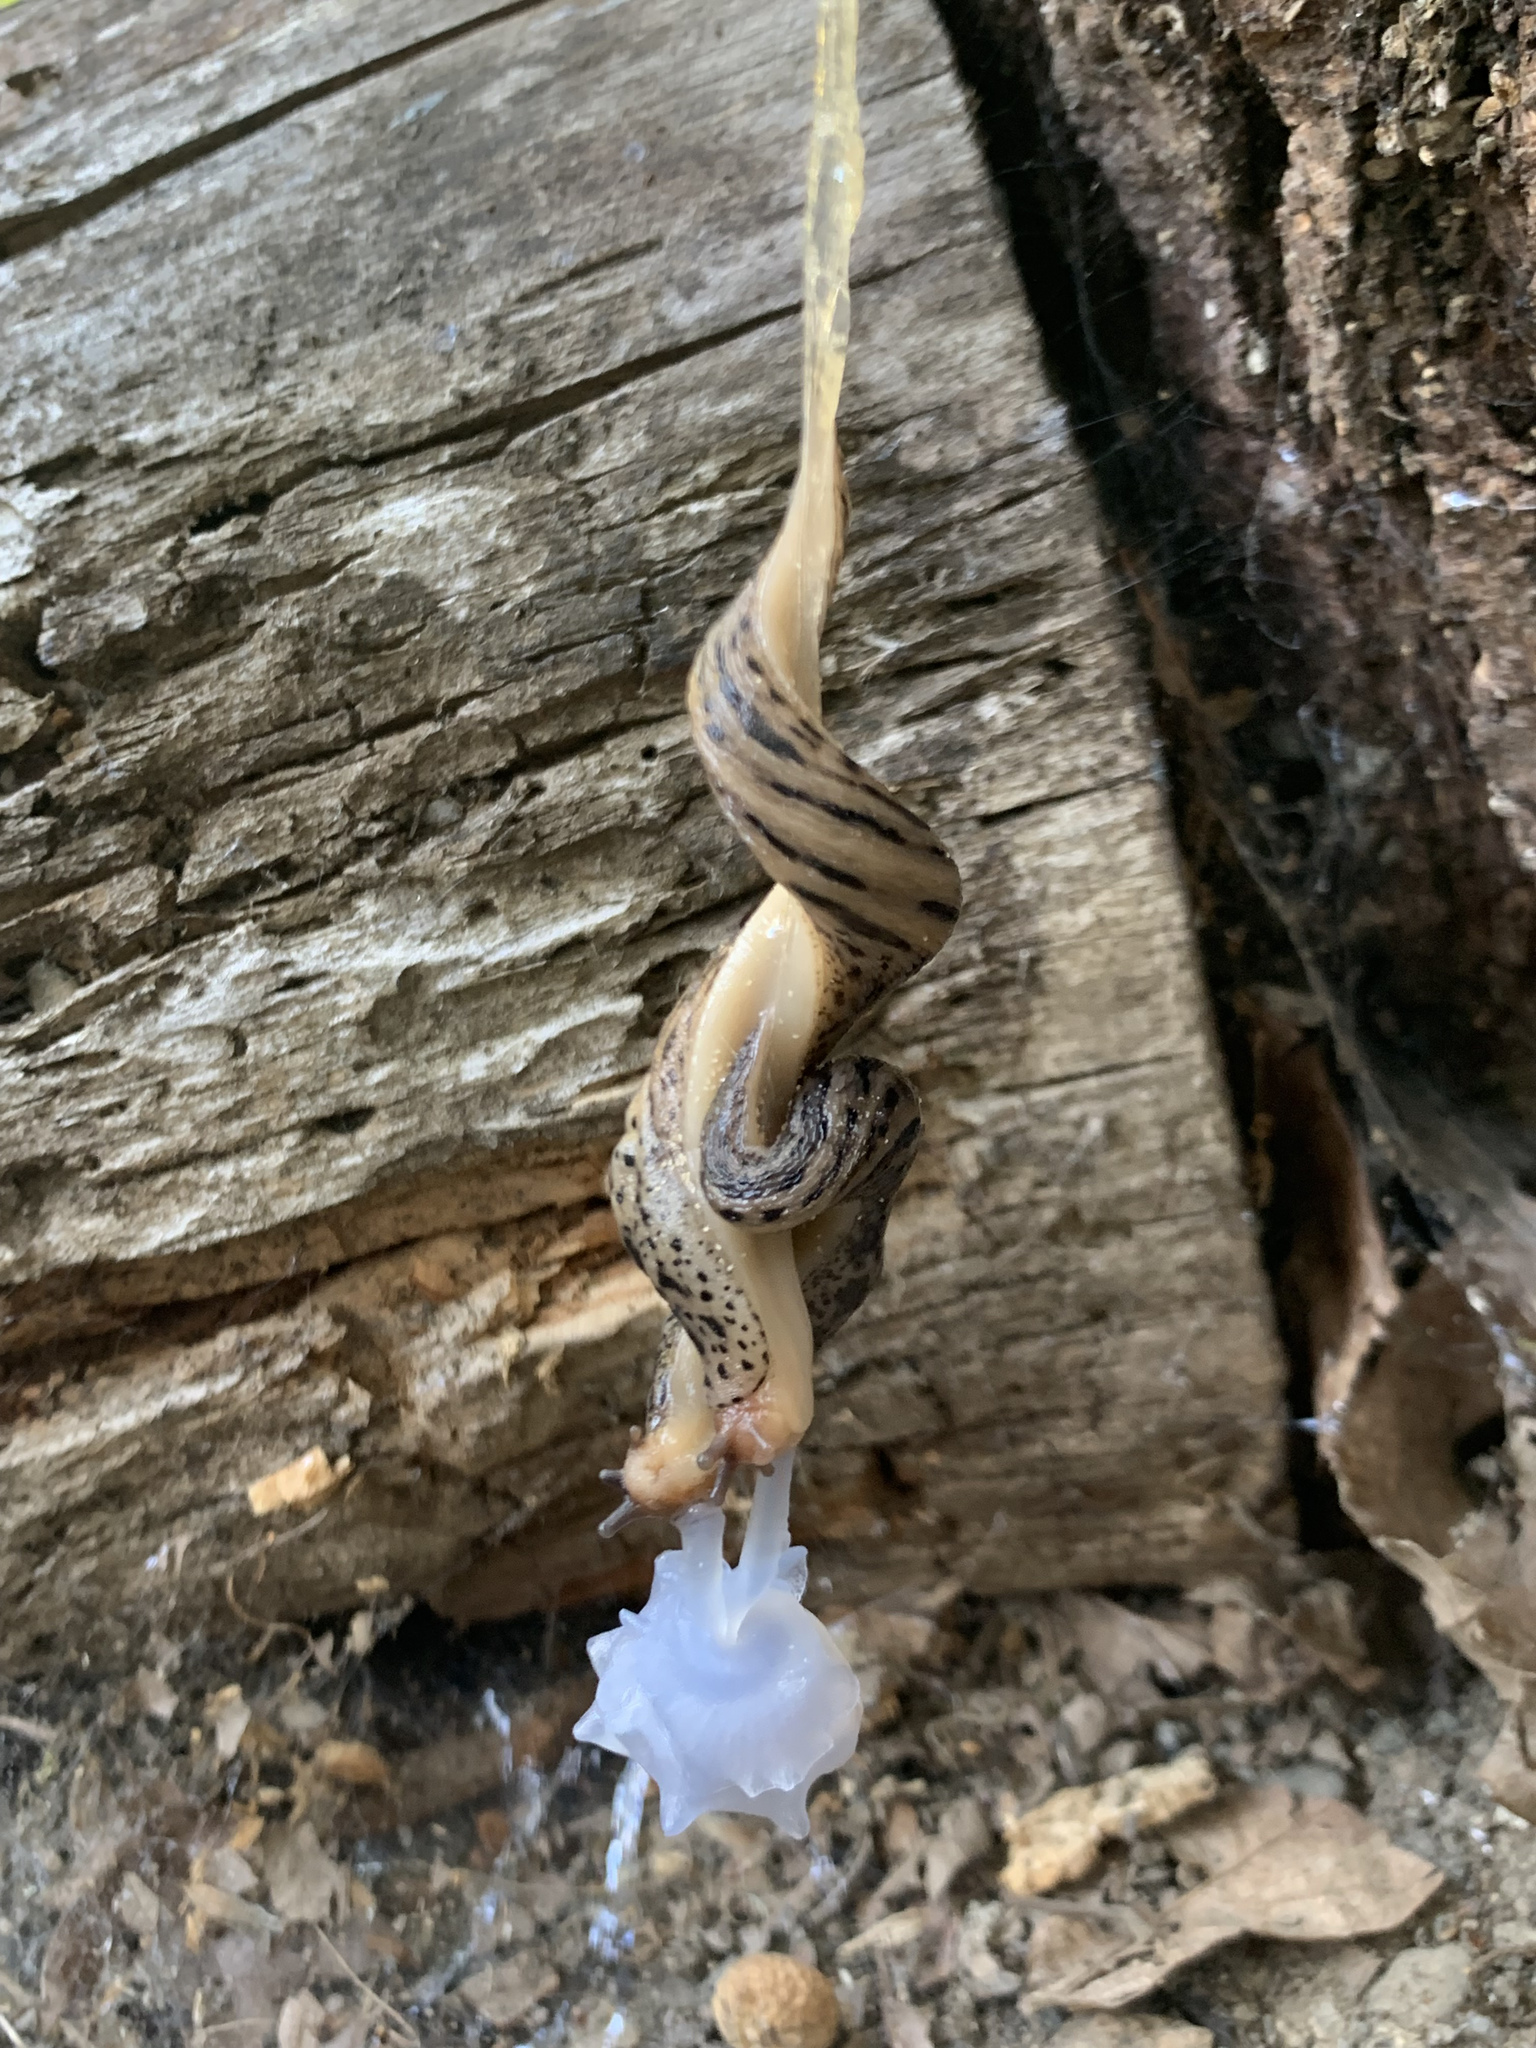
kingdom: Animalia
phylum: Mollusca
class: Gastropoda
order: Stylommatophora
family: Limacidae
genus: Limax
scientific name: Limax maximus
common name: Great grey slug
